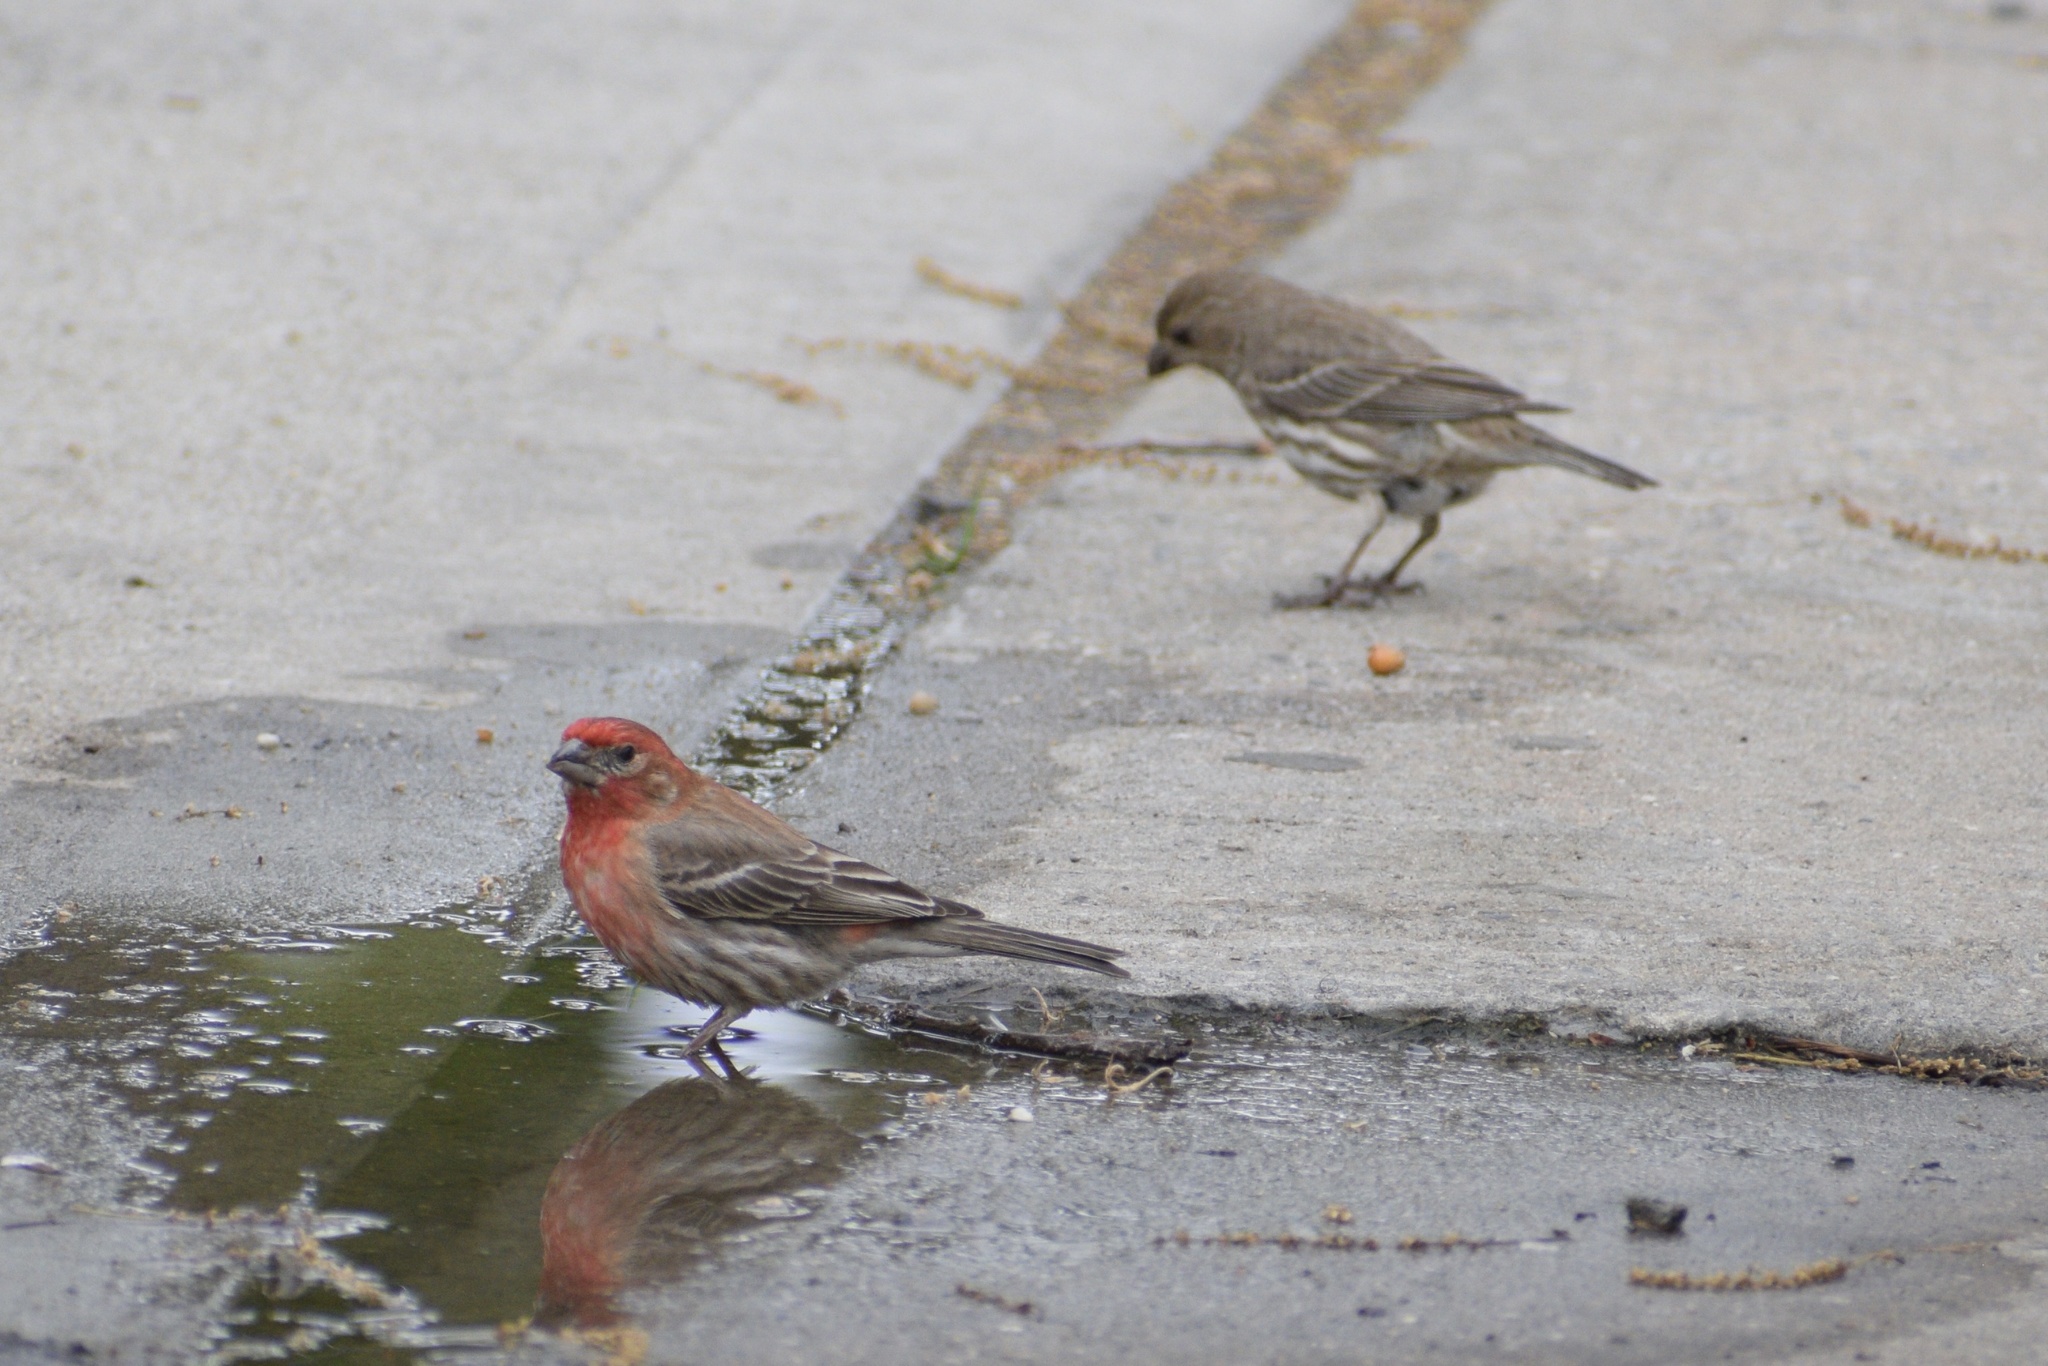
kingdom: Animalia
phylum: Chordata
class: Aves
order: Passeriformes
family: Fringillidae
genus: Haemorhous
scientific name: Haemorhous mexicanus
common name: House finch
